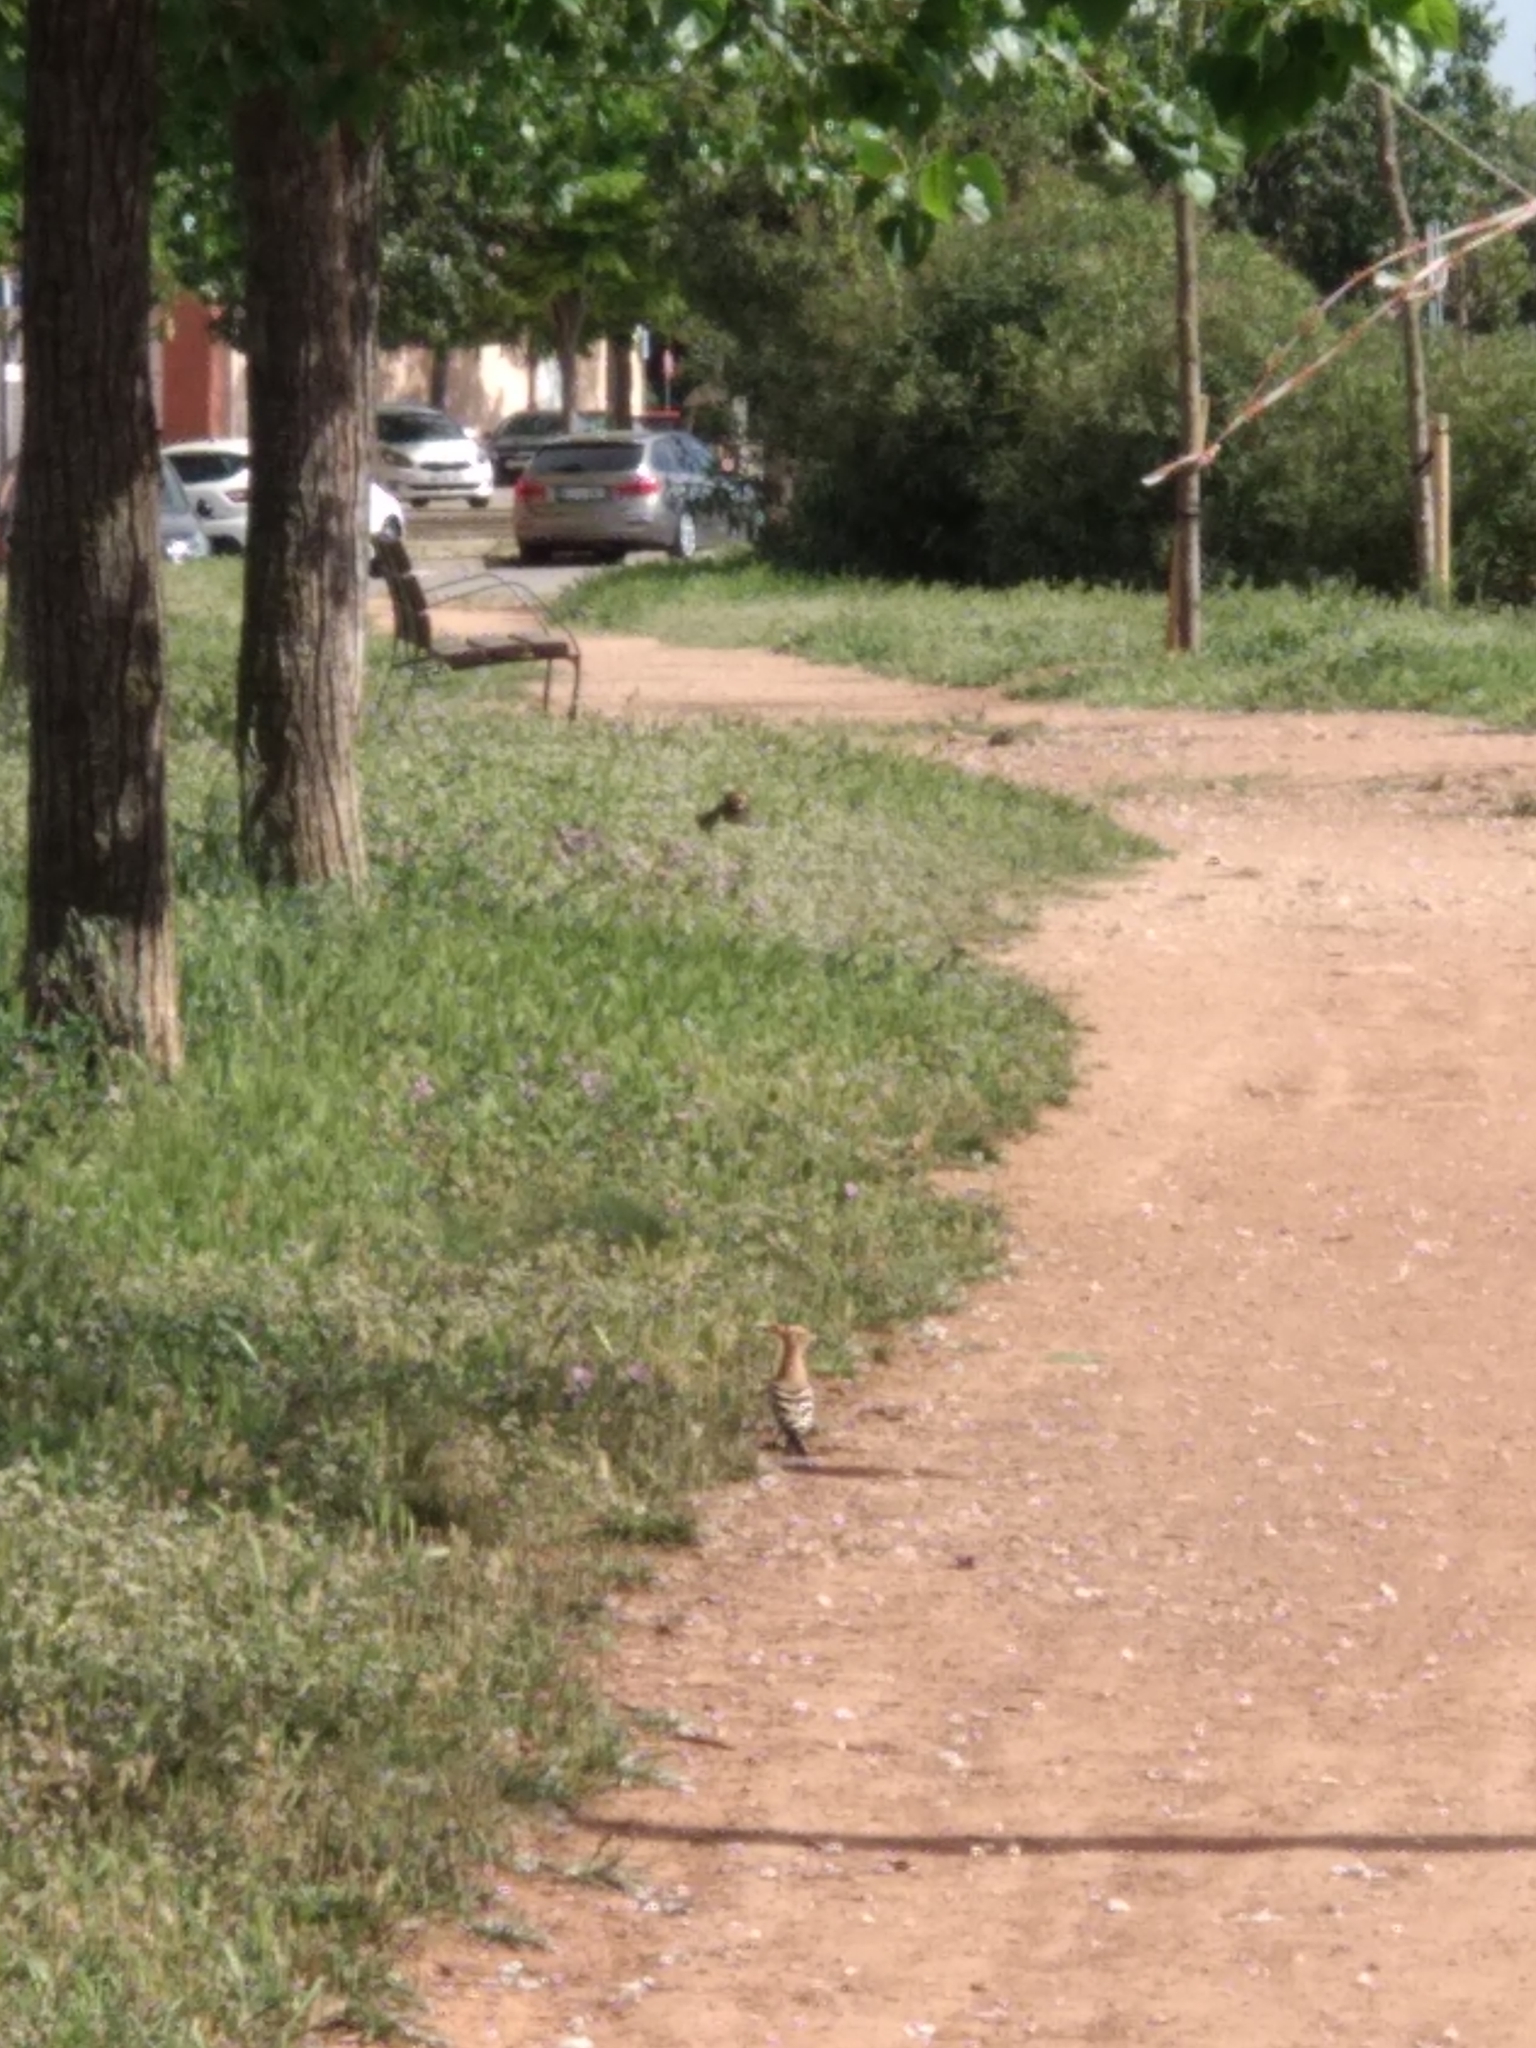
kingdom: Animalia
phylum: Chordata
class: Aves
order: Bucerotiformes
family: Upupidae
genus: Upupa
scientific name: Upupa epops
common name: Eurasian hoopoe
